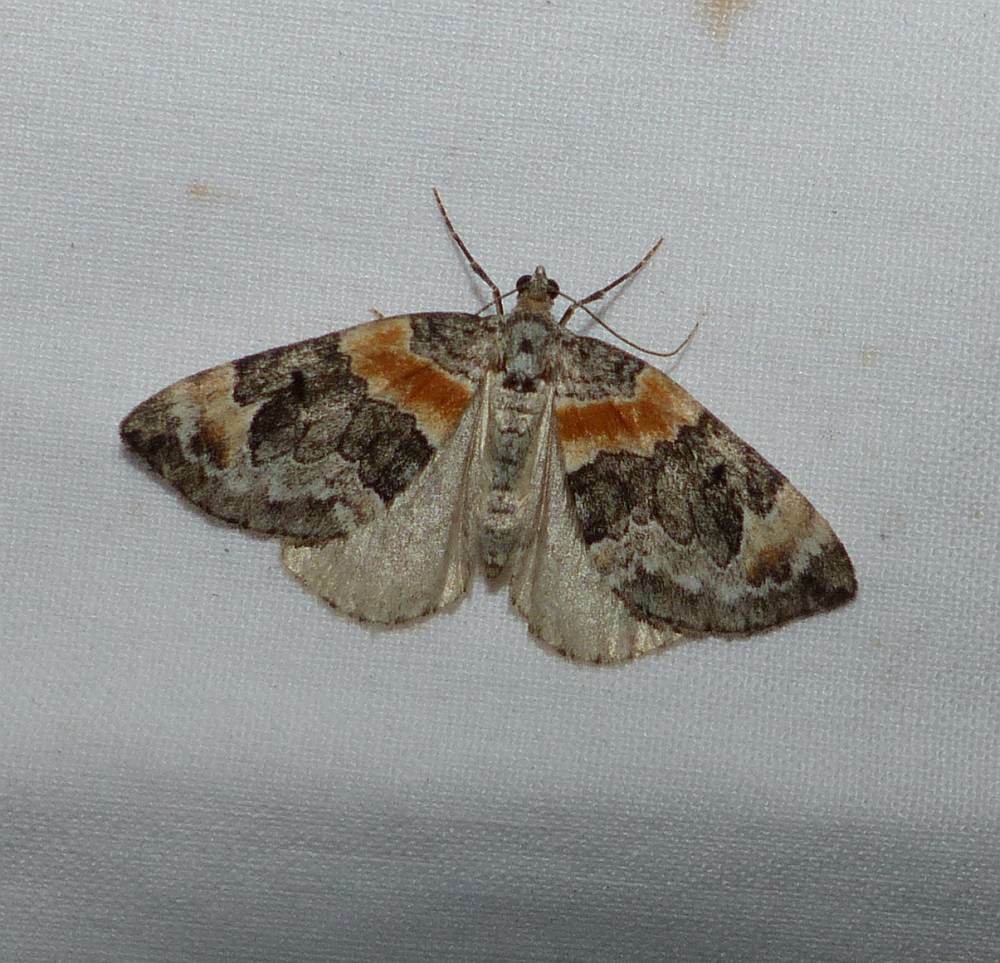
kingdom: Animalia
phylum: Arthropoda
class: Insecta
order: Lepidoptera
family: Geometridae
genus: Dysstroma
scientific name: Dysstroma hersiliata
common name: Orange-barred carpet
